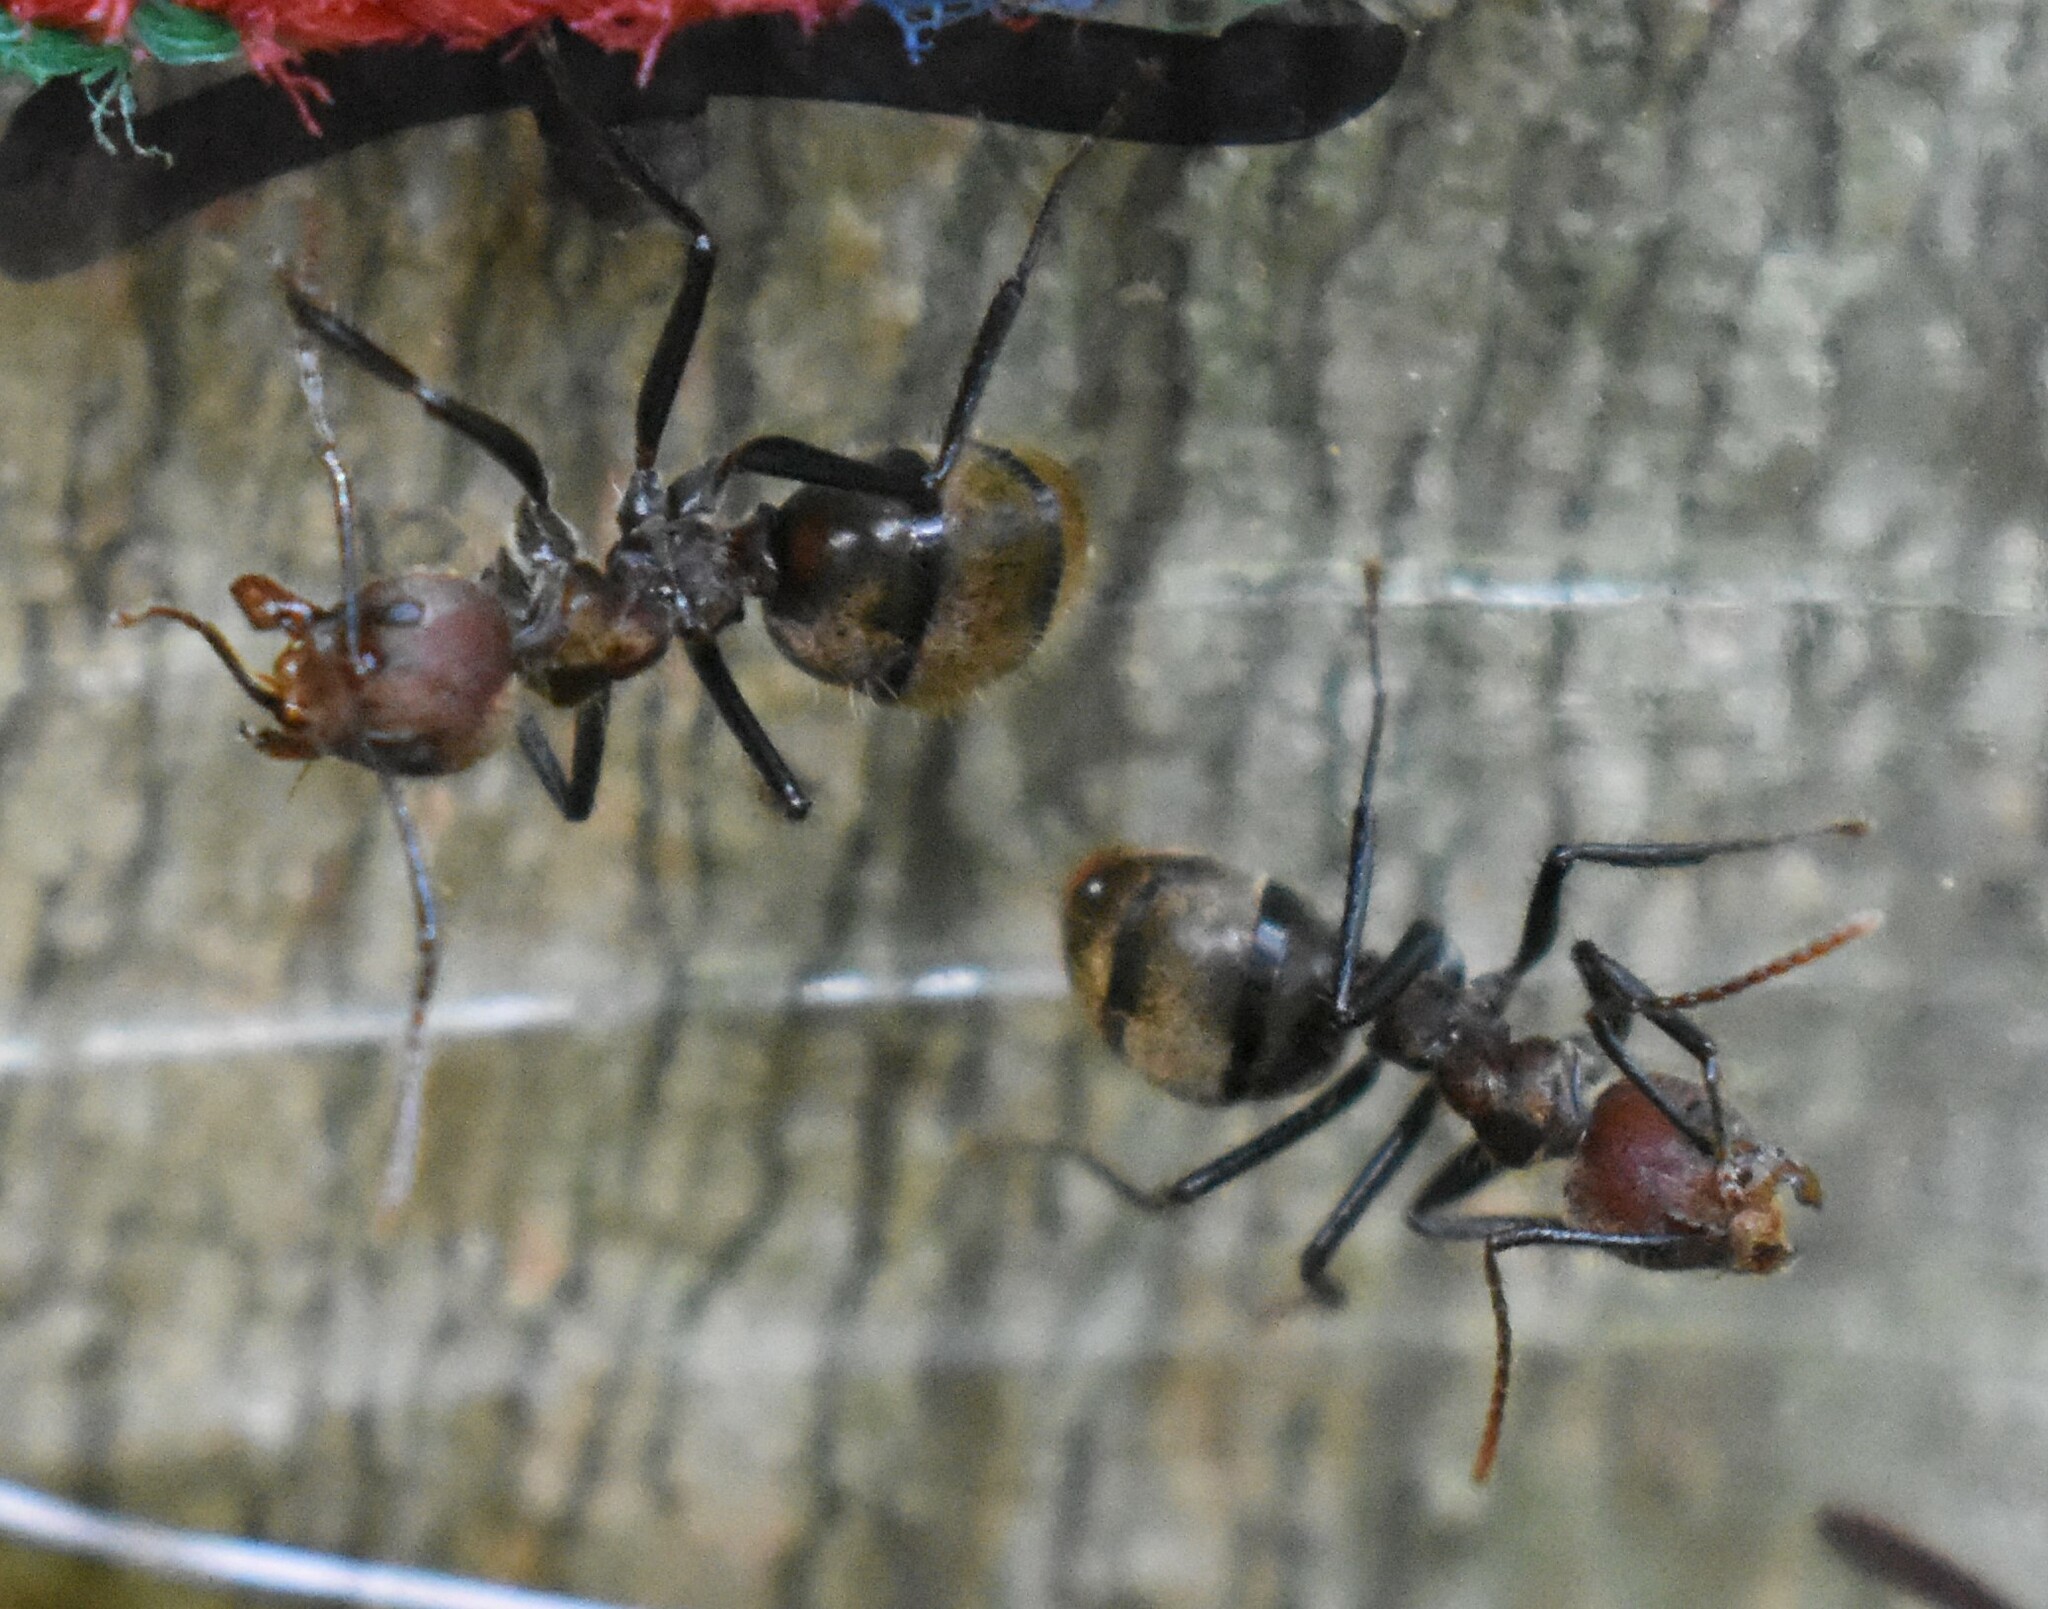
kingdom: Animalia
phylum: Arthropoda
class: Insecta
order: Hymenoptera
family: Formicidae
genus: Dolichoderus
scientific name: Dolichoderus quadridenticulatus
